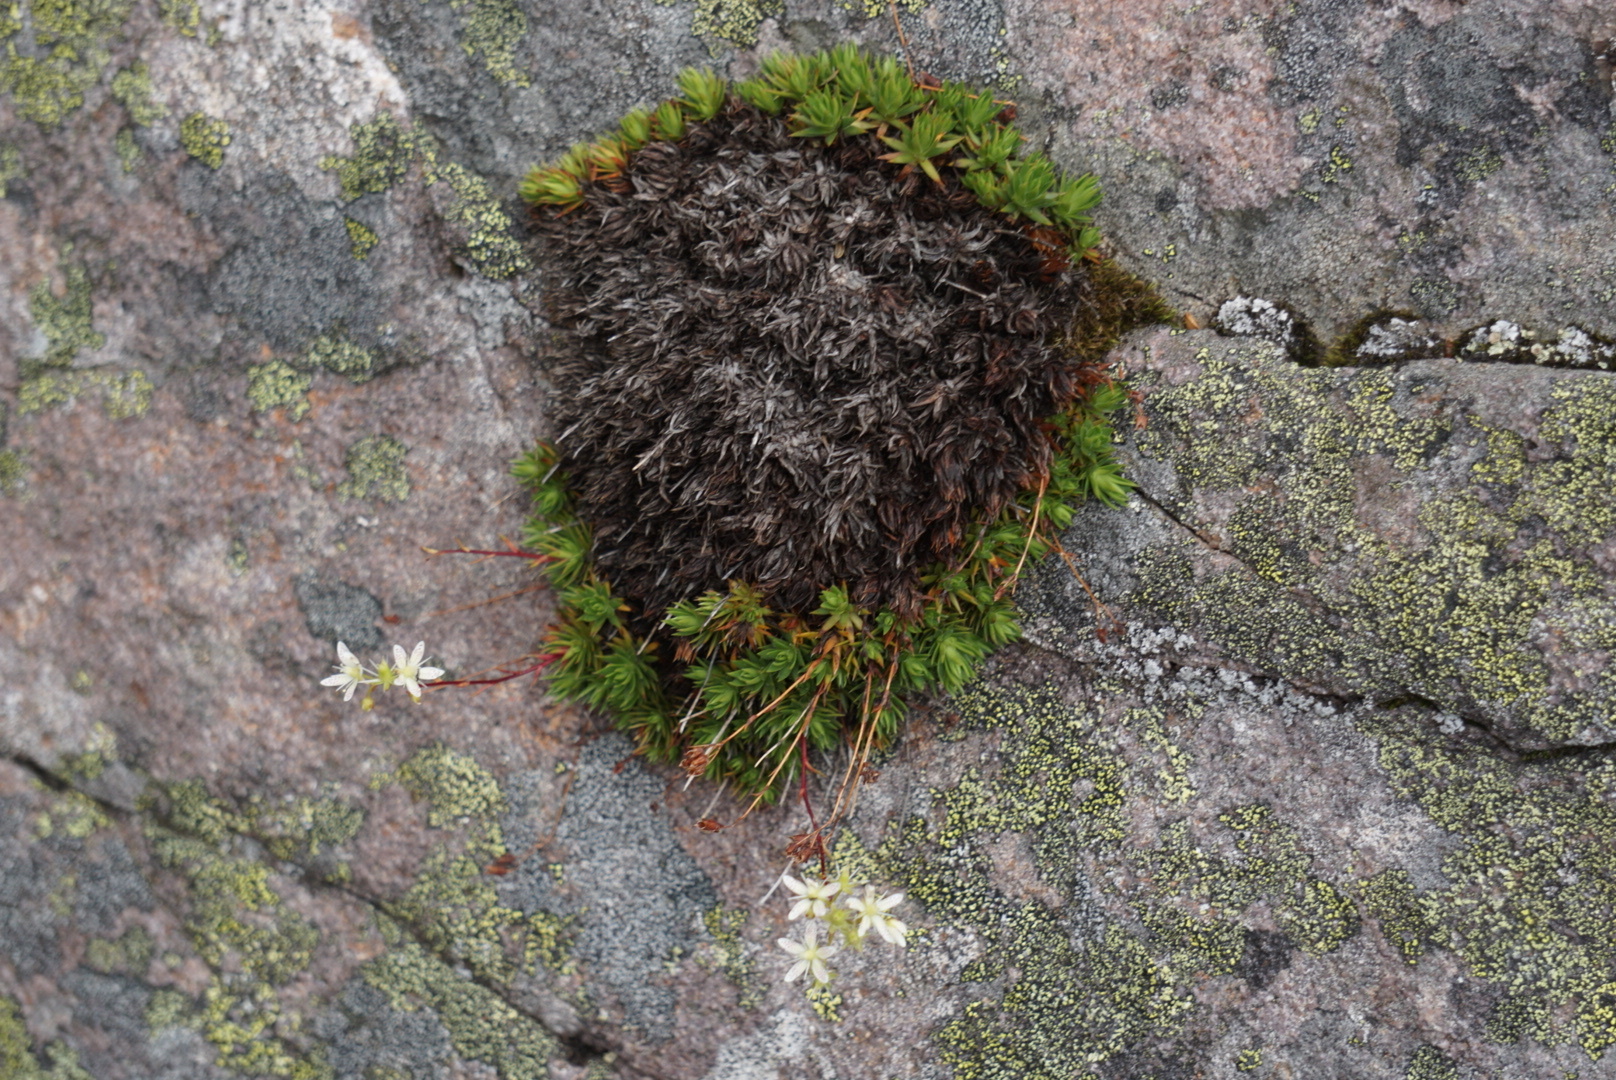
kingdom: Plantae
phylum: Tracheophyta
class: Magnoliopsida
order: Saxifragales
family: Saxifragaceae
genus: Saxifraga
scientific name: Saxifraga bronchialis
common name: Matted saxifrage
